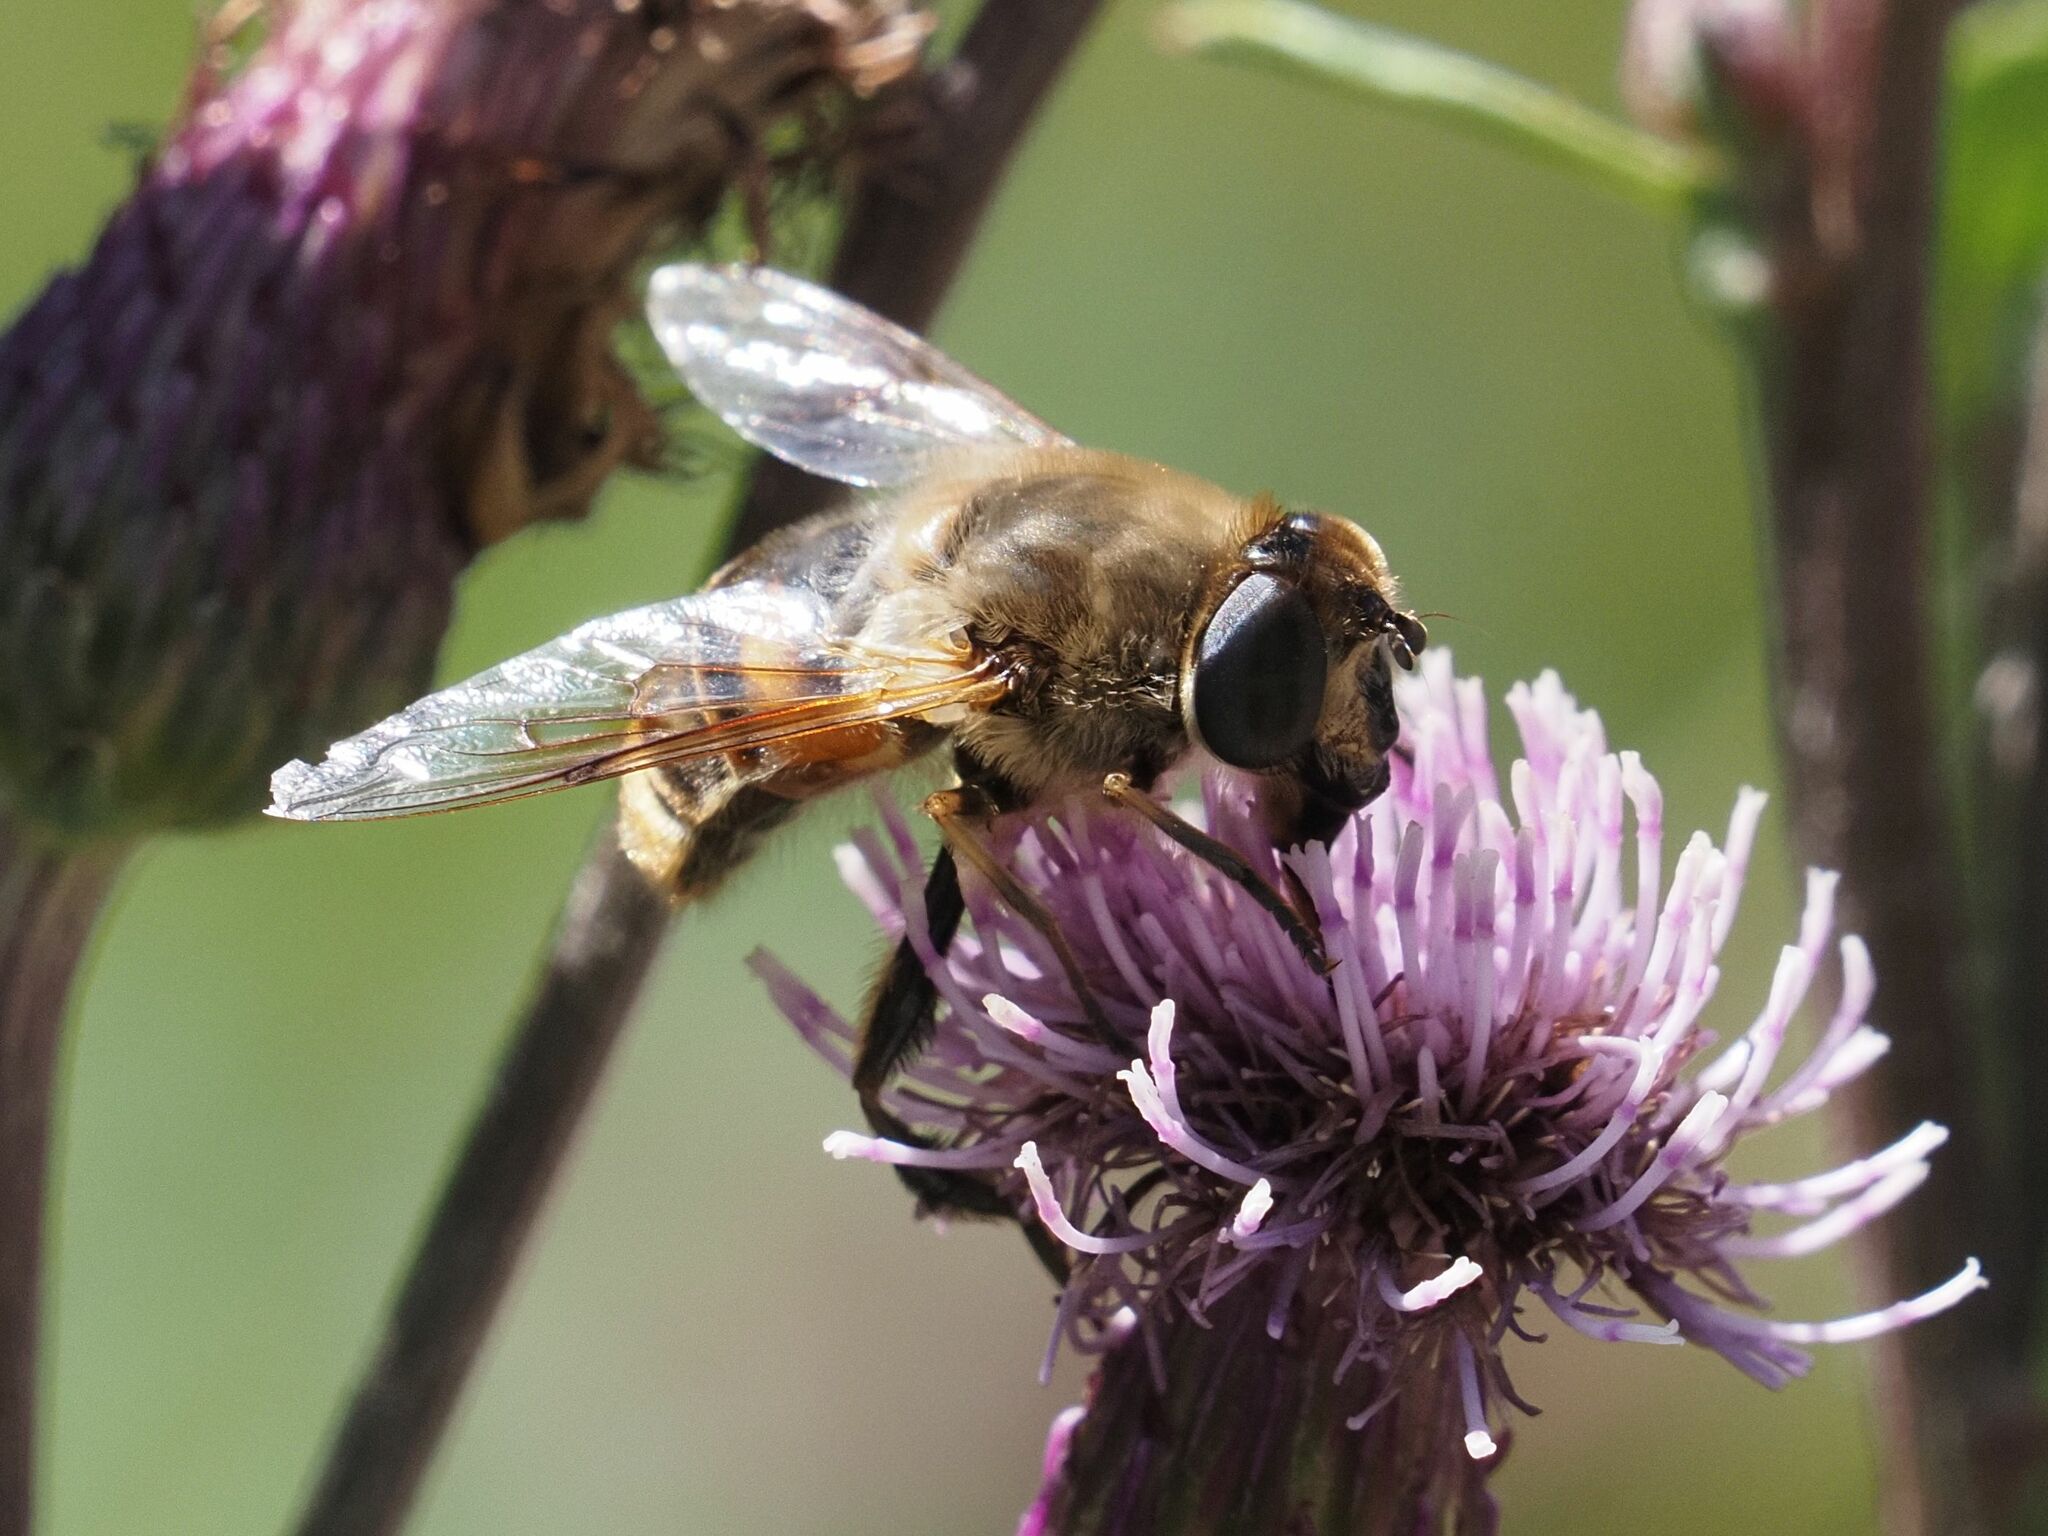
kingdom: Animalia
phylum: Arthropoda
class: Insecta
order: Diptera
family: Syrphidae
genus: Eristalis
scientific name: Eristalis tenax
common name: Drone fly
